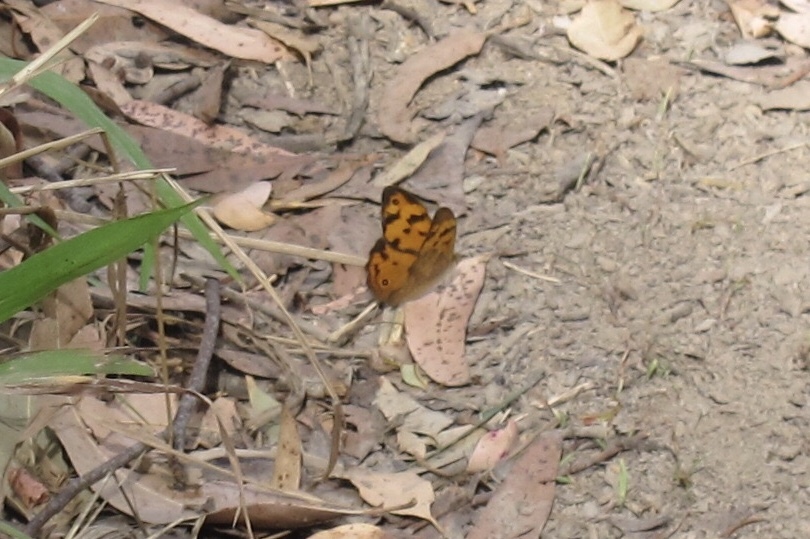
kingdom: Animalia
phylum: Arthropoda
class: Insecta
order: Lepidoptera
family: Nymphalidae
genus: Heteronympha
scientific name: Heteronympha mirifica
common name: Wonder brown
